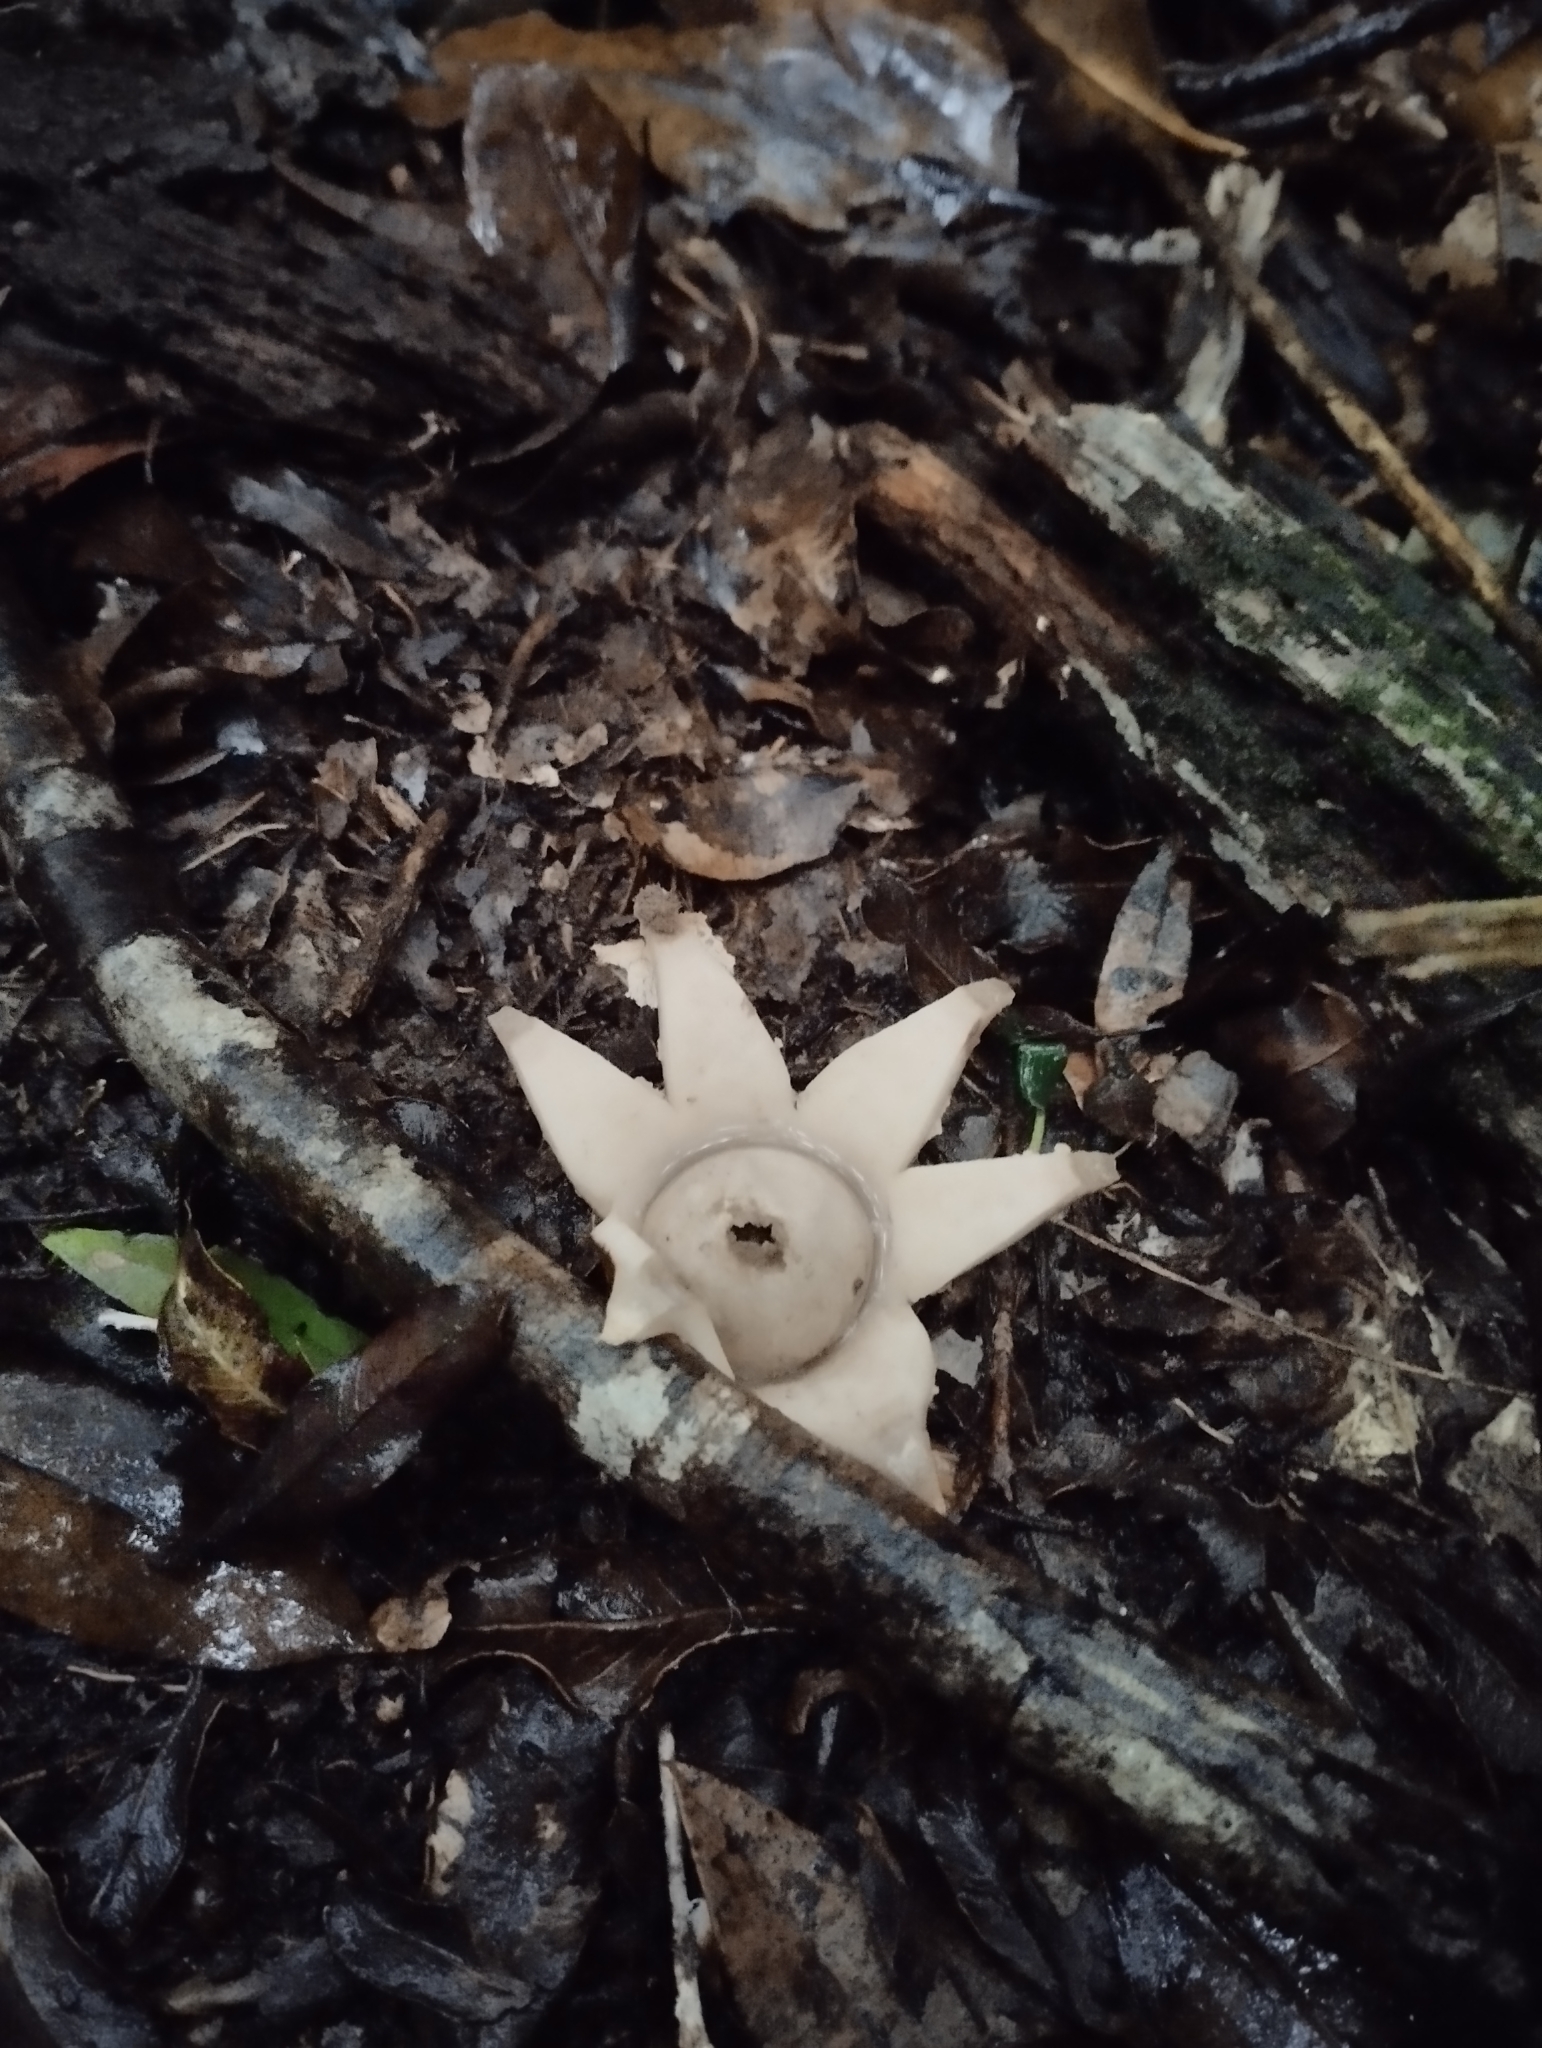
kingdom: Fungi
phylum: Basidiomycota
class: Agaricomycetes
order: Geastrales
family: Geastraceae
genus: Geastrum
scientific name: Geastrum fimbriatum
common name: Sessile earthstar
